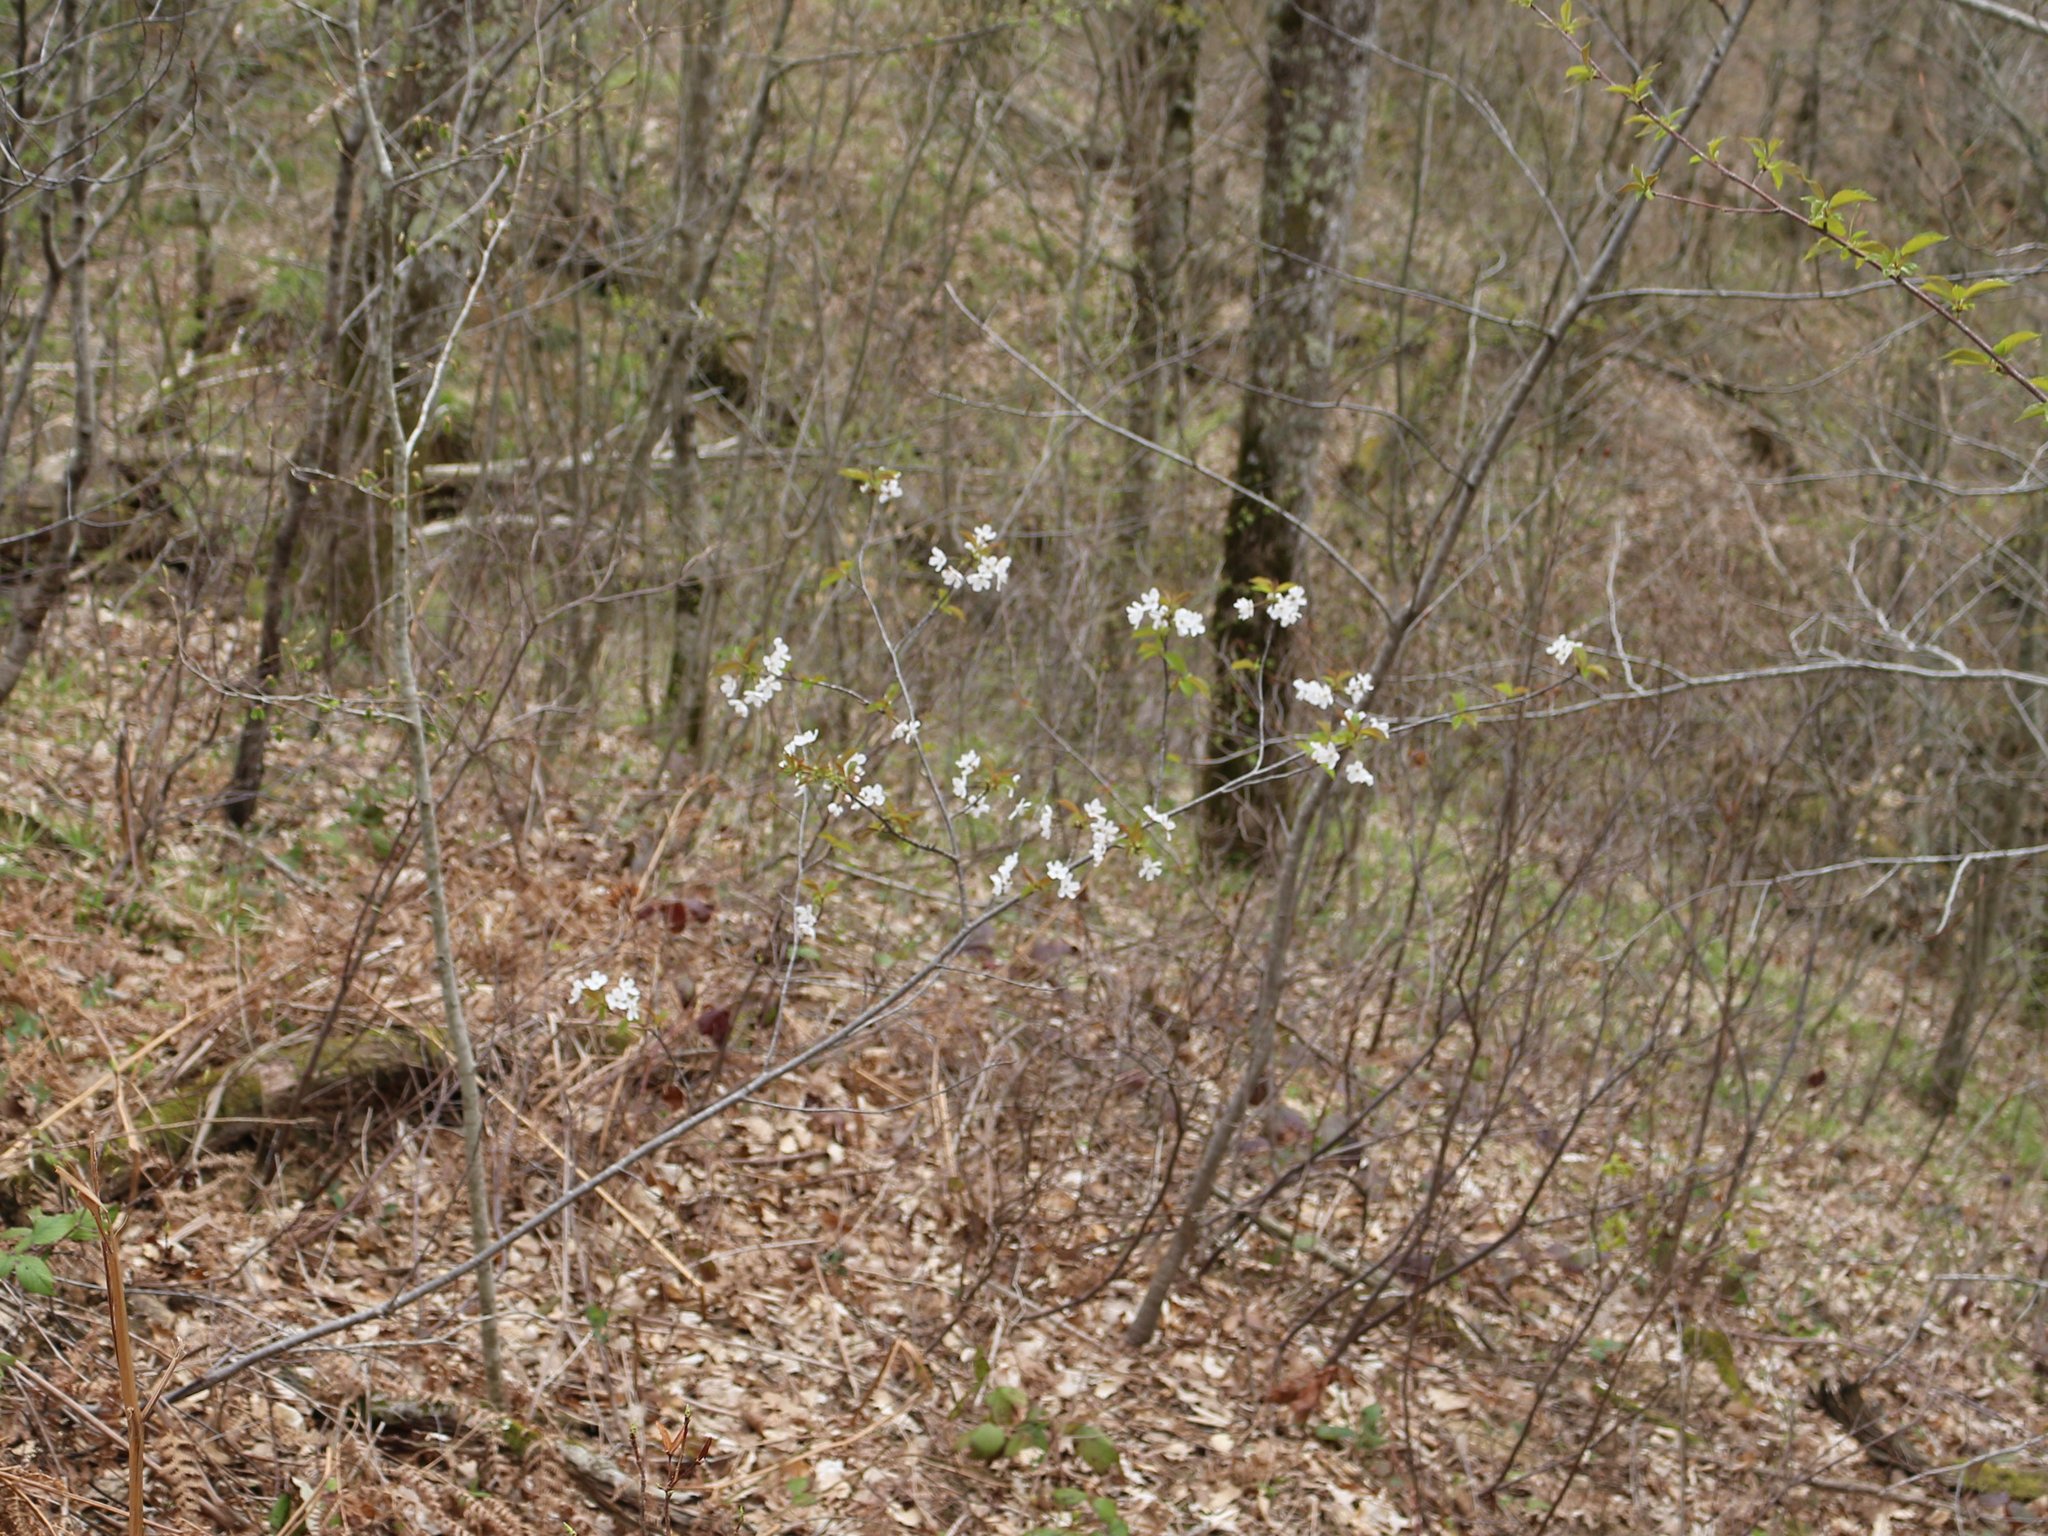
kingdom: Plantae
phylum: Tracheophyta
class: Magnoliopsida
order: Rosales
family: Rosaceae
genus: Prunus
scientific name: Prunus avium
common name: Sweet cherry
